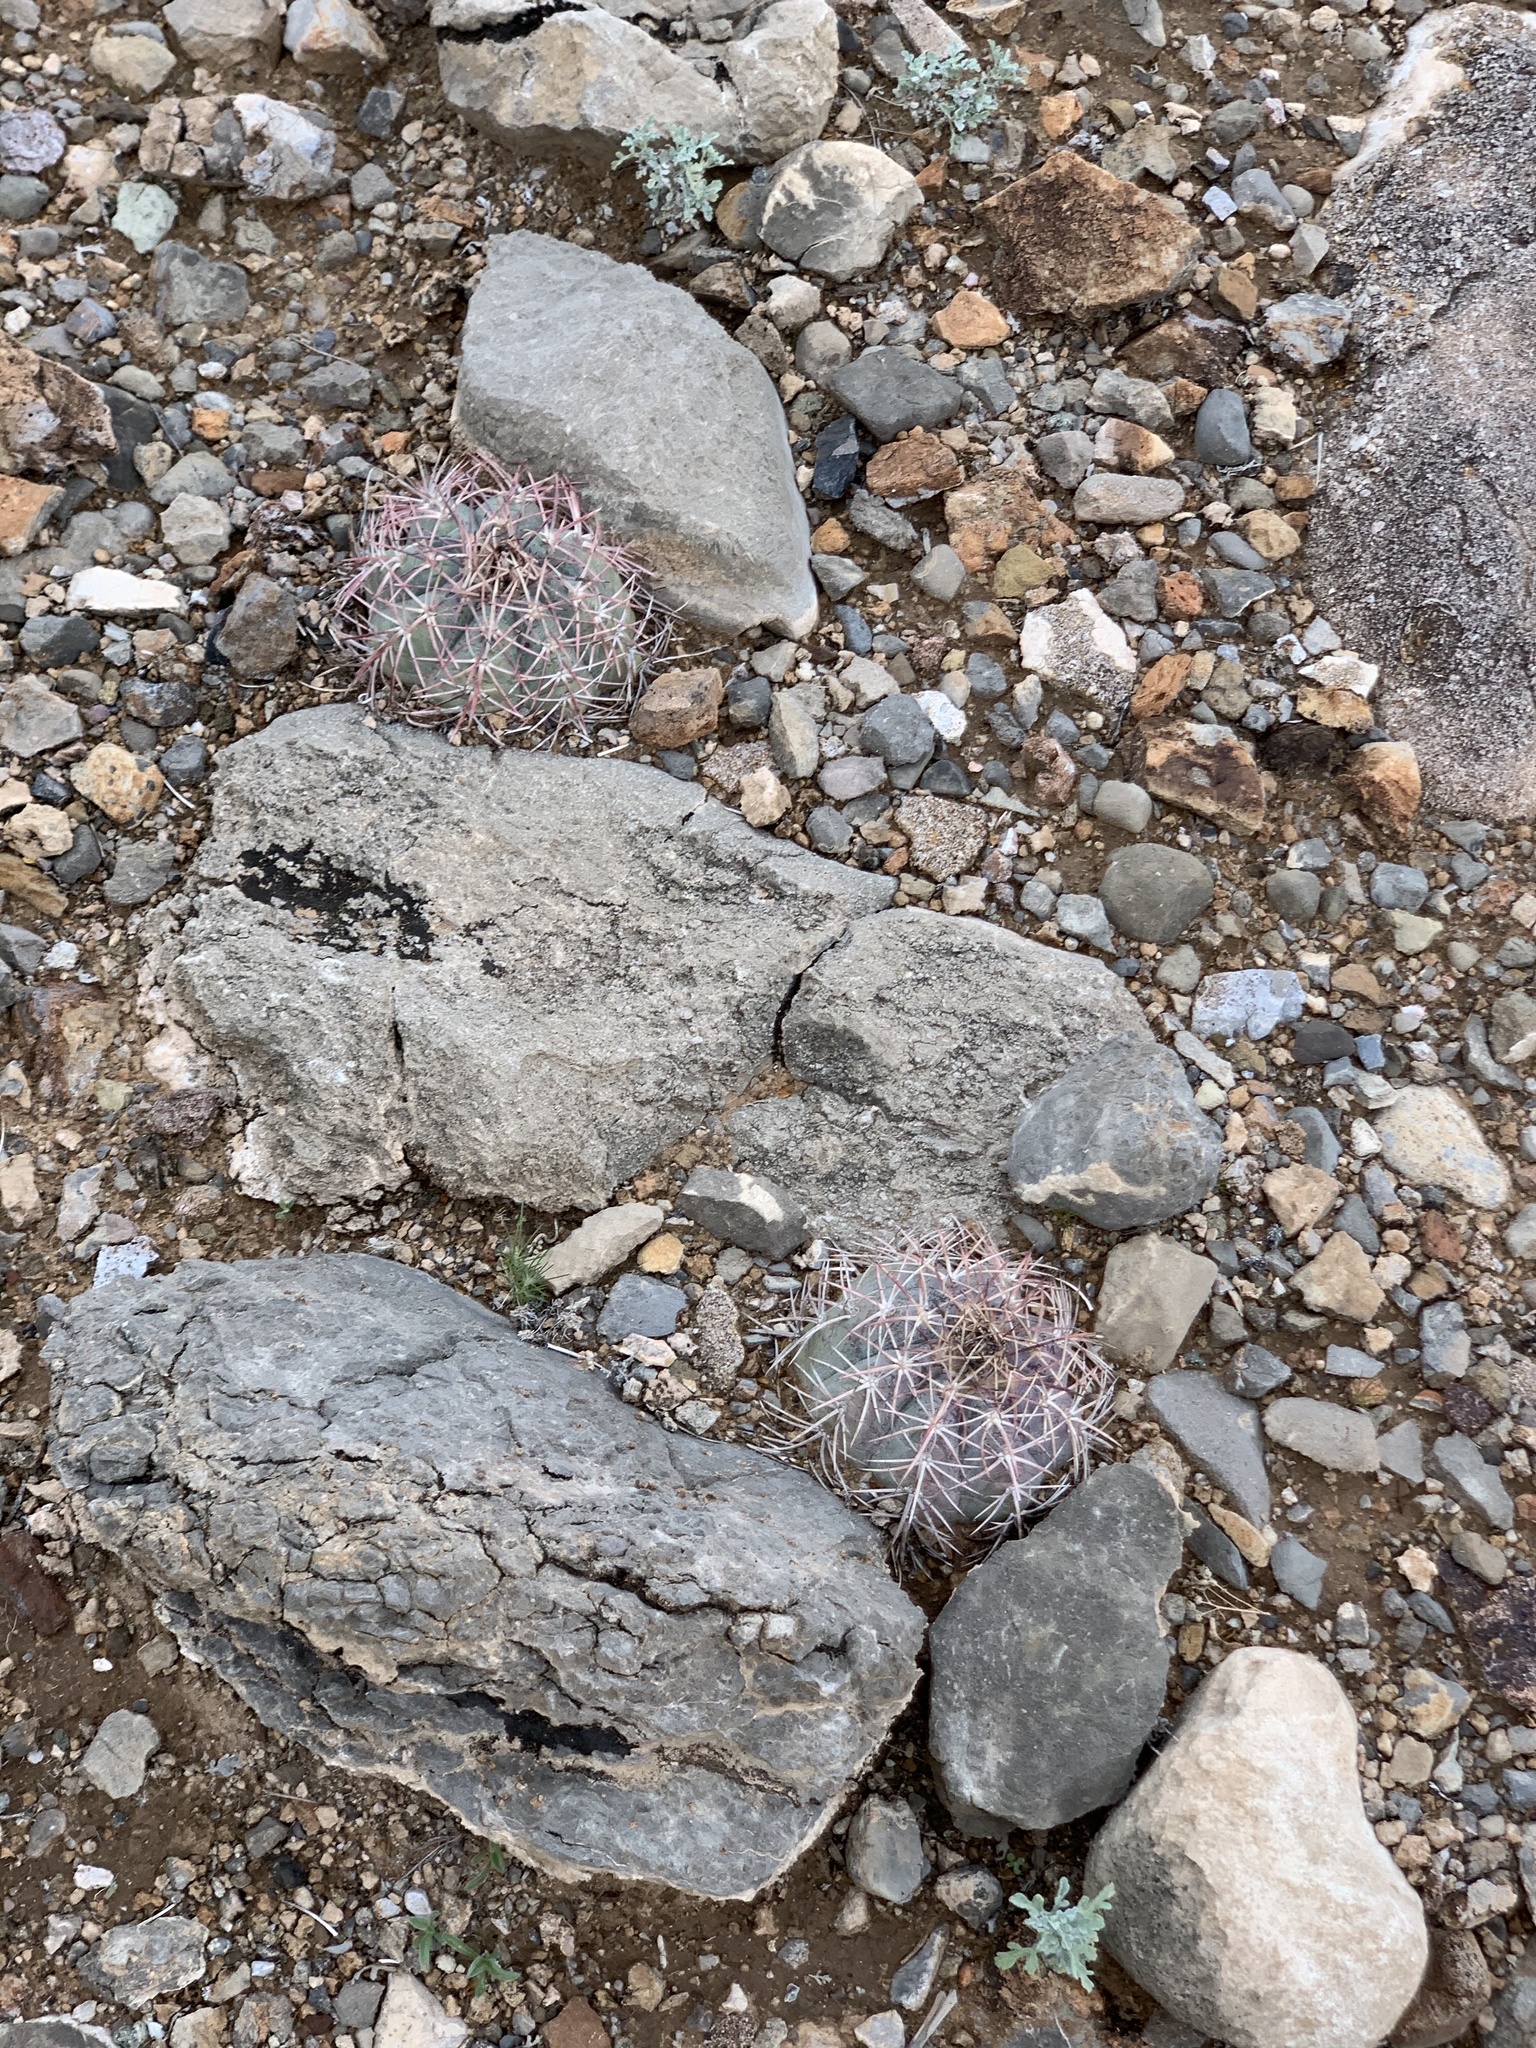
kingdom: Plantae
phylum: Tracheophyta
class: Magnoliopsida
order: Caryophyllales
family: Cactaceae
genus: Echinocactus
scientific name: Echinocactus horizonthalonius
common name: Devilshead
